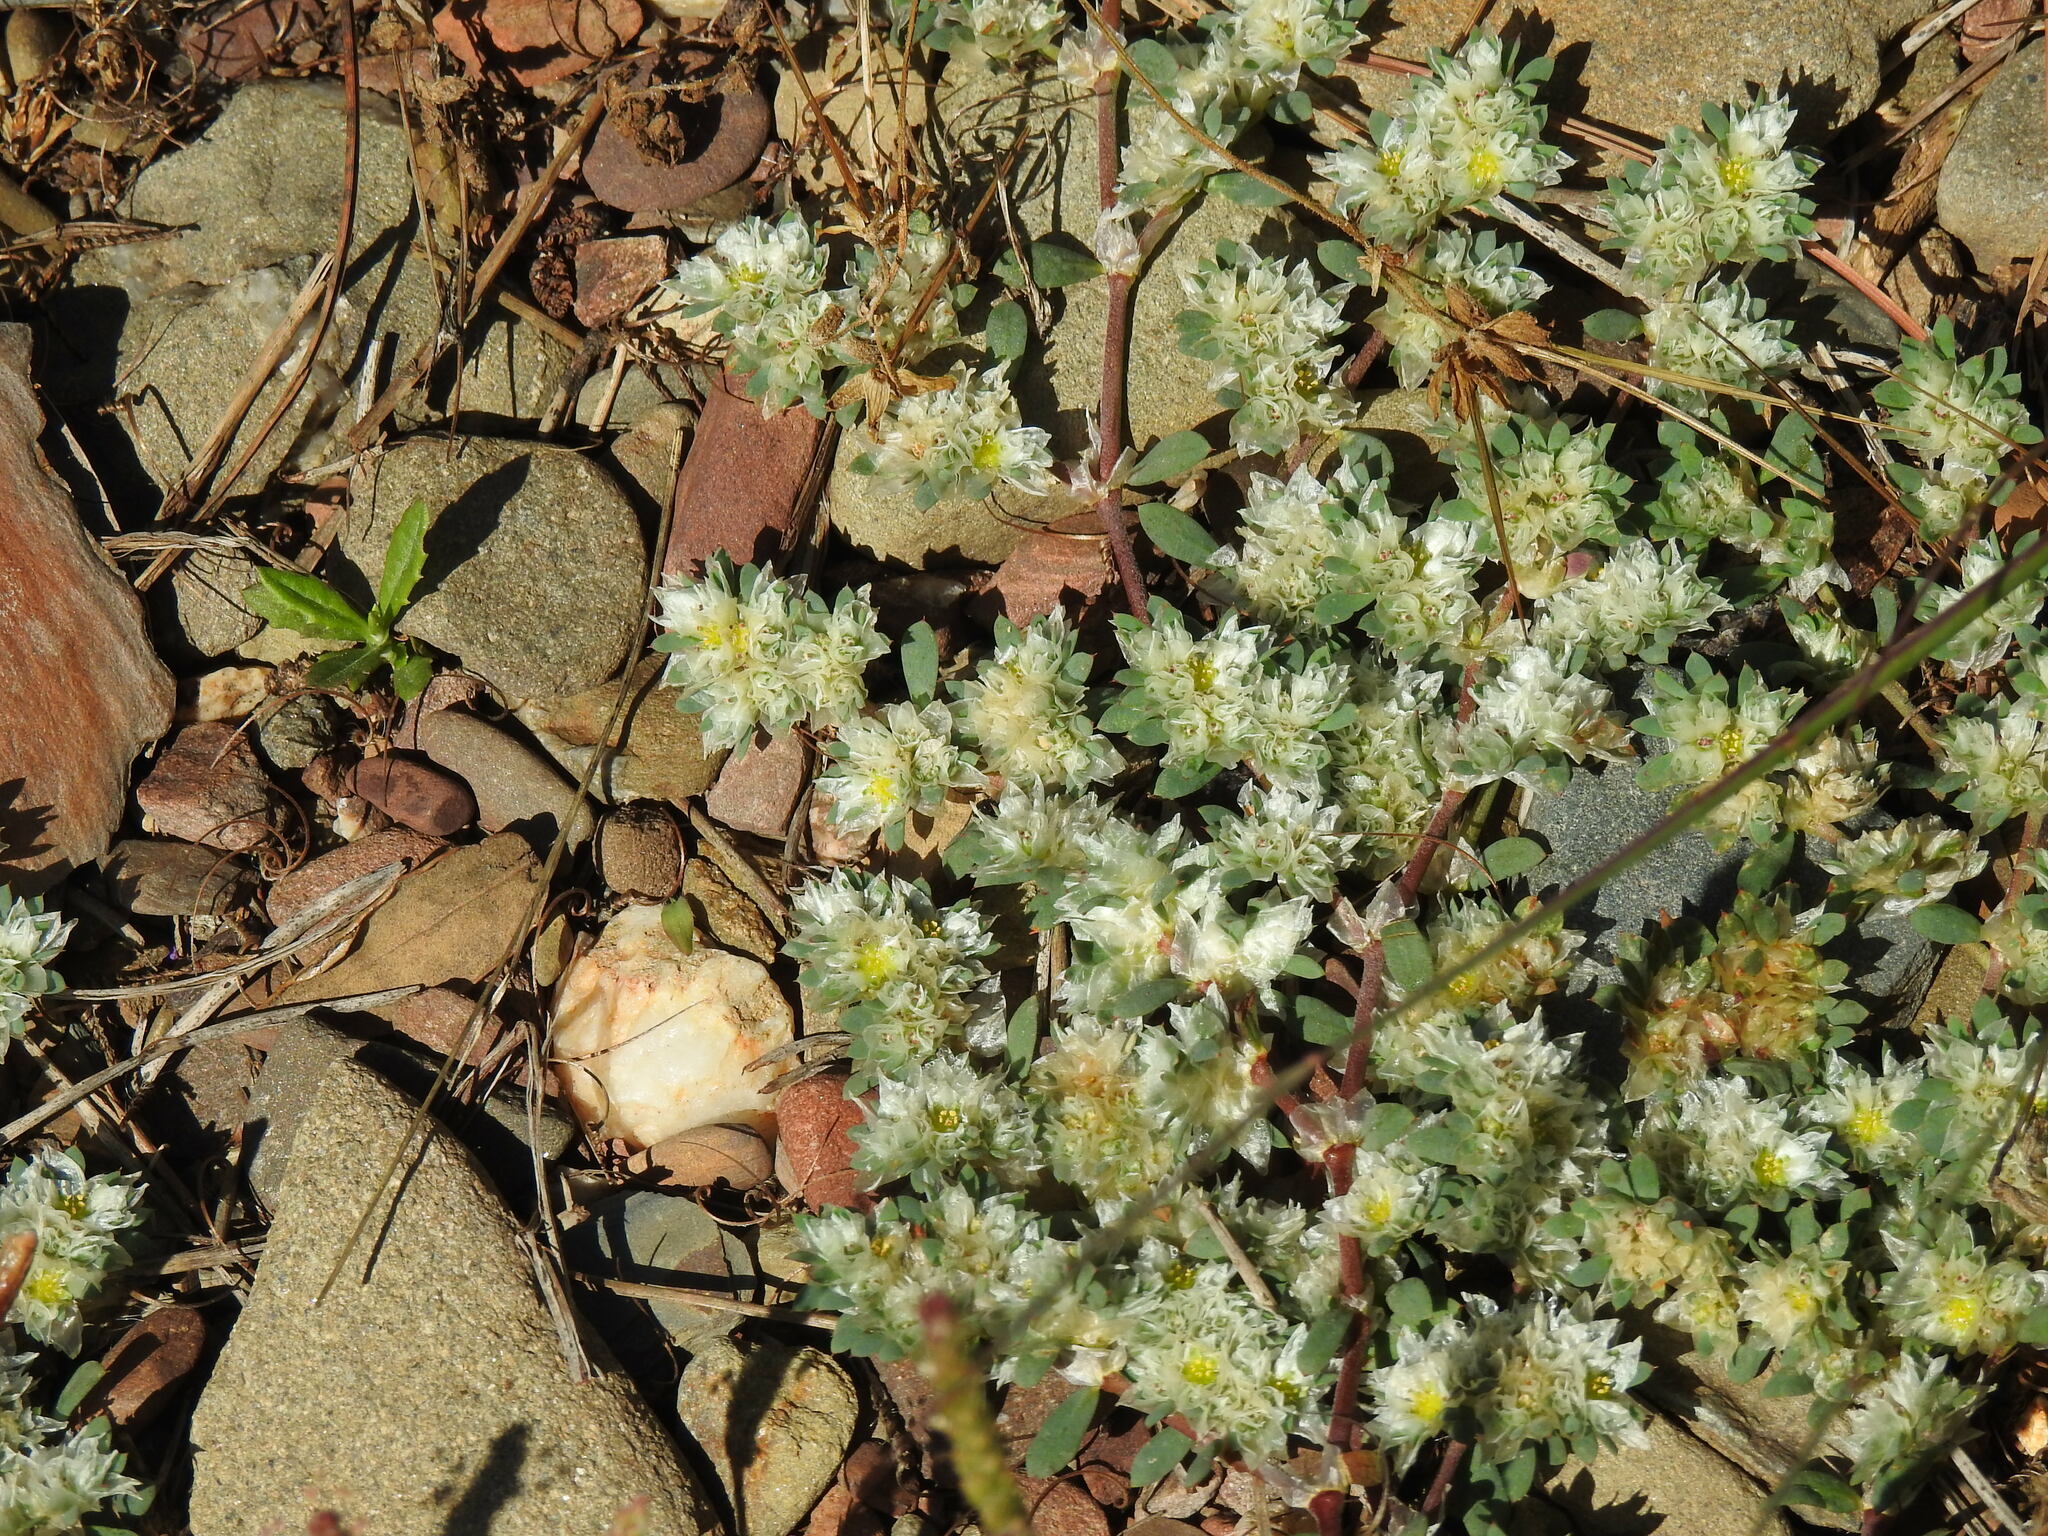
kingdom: Plantae
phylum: Tracheophyta
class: Magnoliopsida
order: Caryophyllales
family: Caryophyllaceae
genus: Paronychia
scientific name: Paronychia argentea
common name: Silver nailroot
